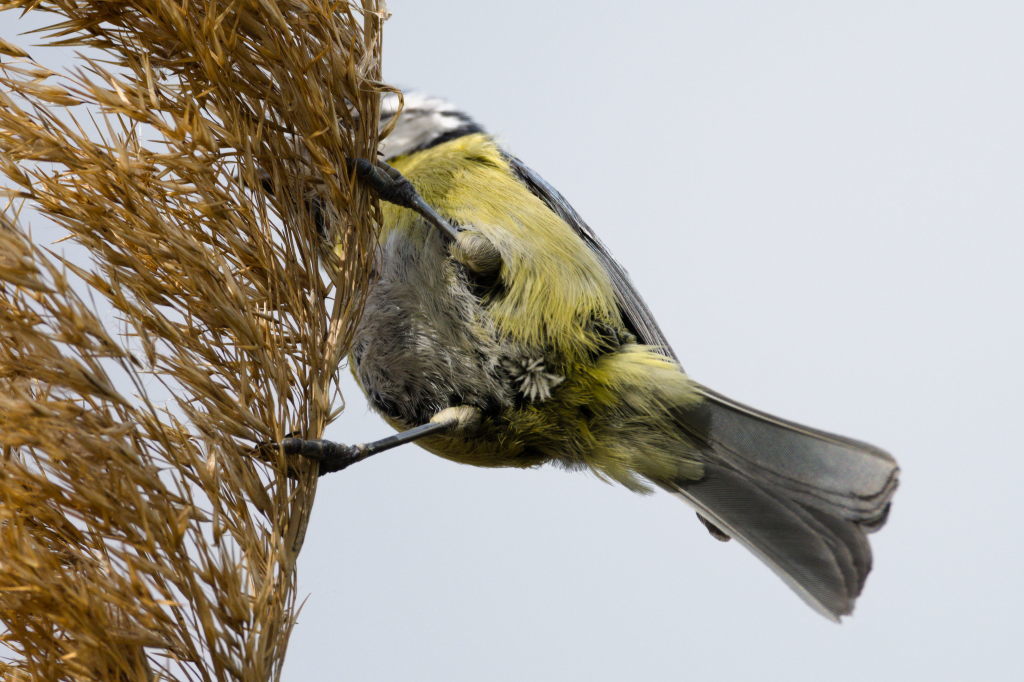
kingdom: Animalia
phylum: Chordata
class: Aves
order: Passeriformes
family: Paridae
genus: Cyanistes
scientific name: Cyanistes caeruleus
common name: Eurasian blue tit
